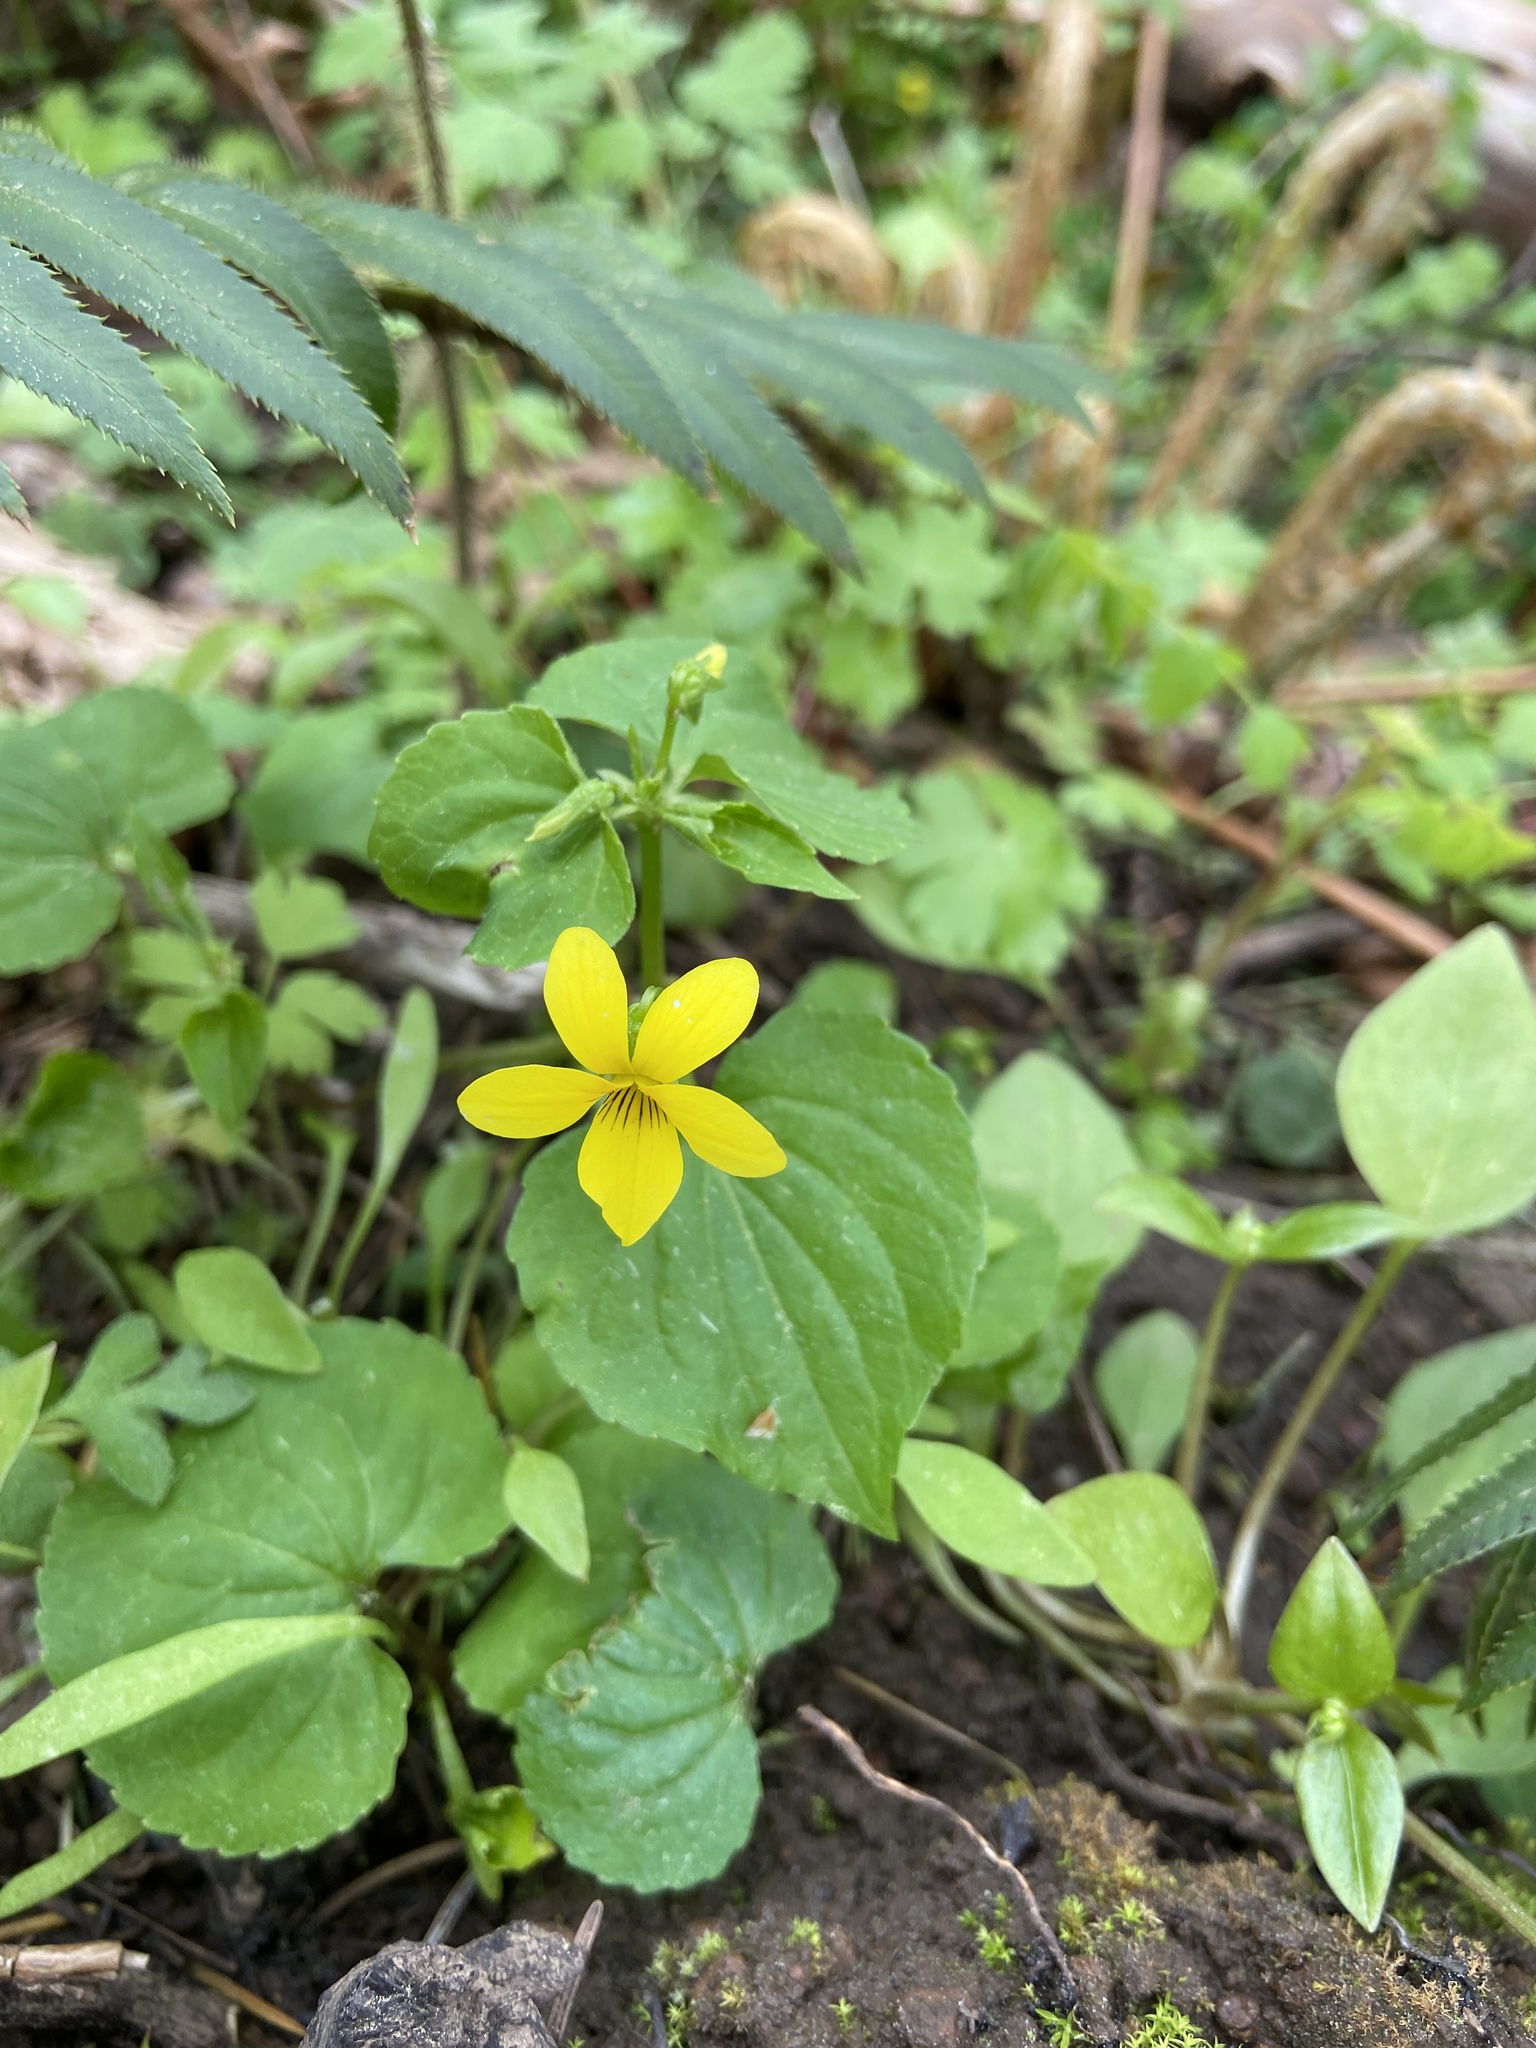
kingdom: Plantae
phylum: Tracheophyta
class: Magnoliopsida
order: Malpighiales
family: Violaceae
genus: Viola
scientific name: Viola glabella
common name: Stream violet
